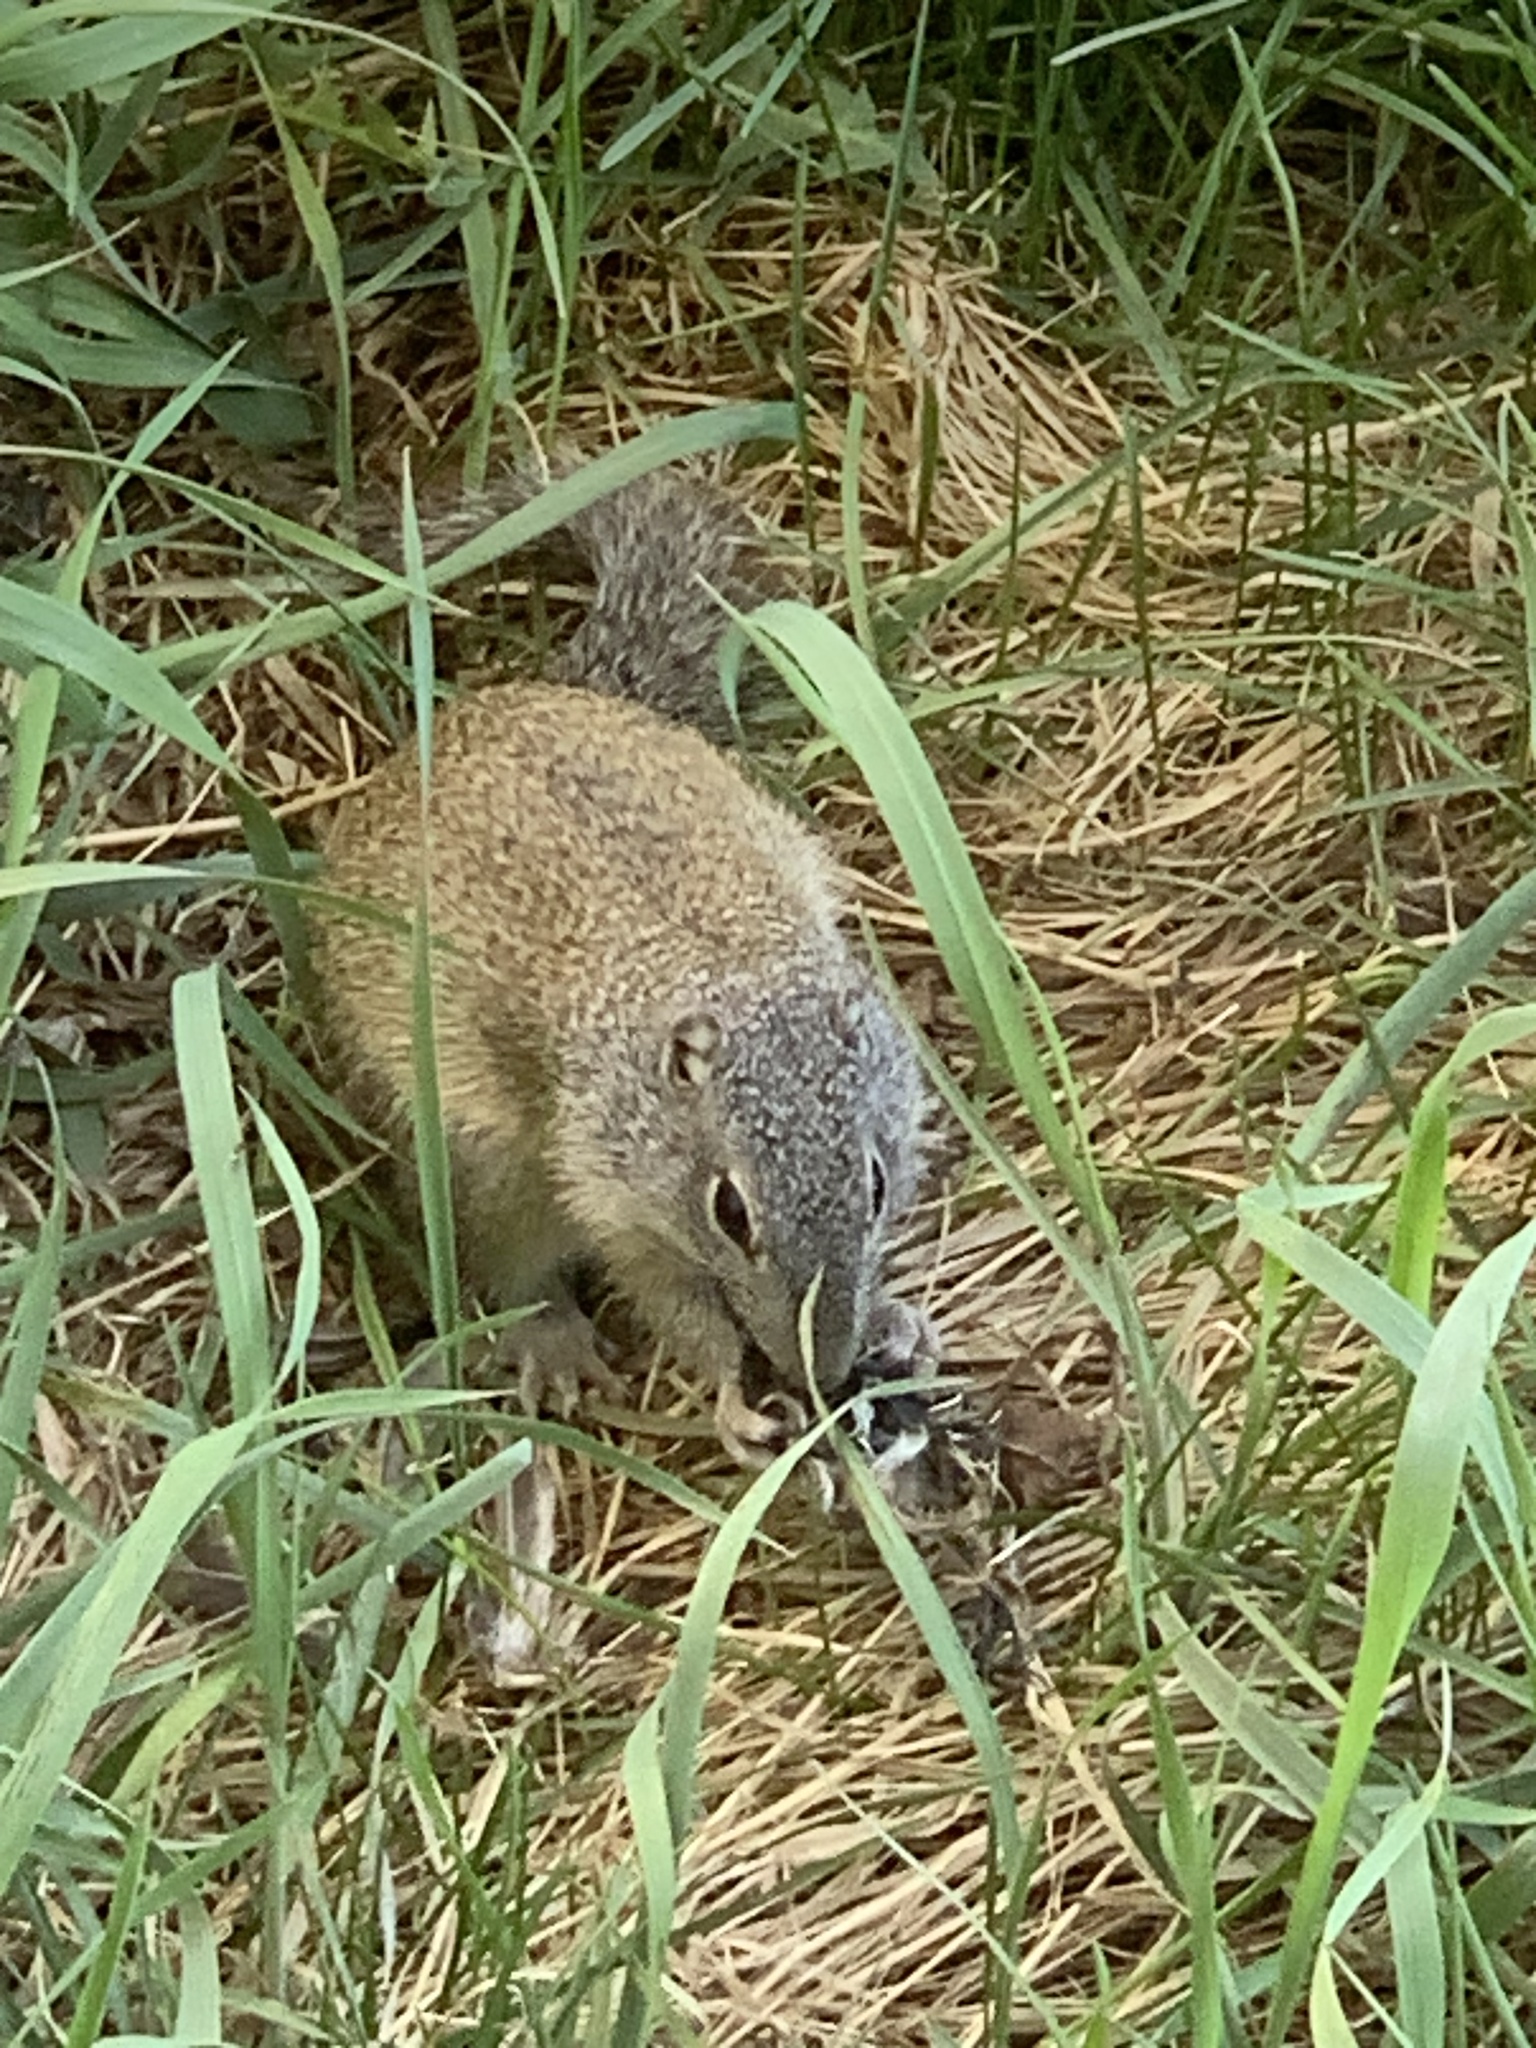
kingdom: Animalia
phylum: Chordata
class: Mammalia
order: Rodentia
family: Sciuridae
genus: Poliocitellus
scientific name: Poliocitellus franklinii
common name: Franklin's ground squirrel
